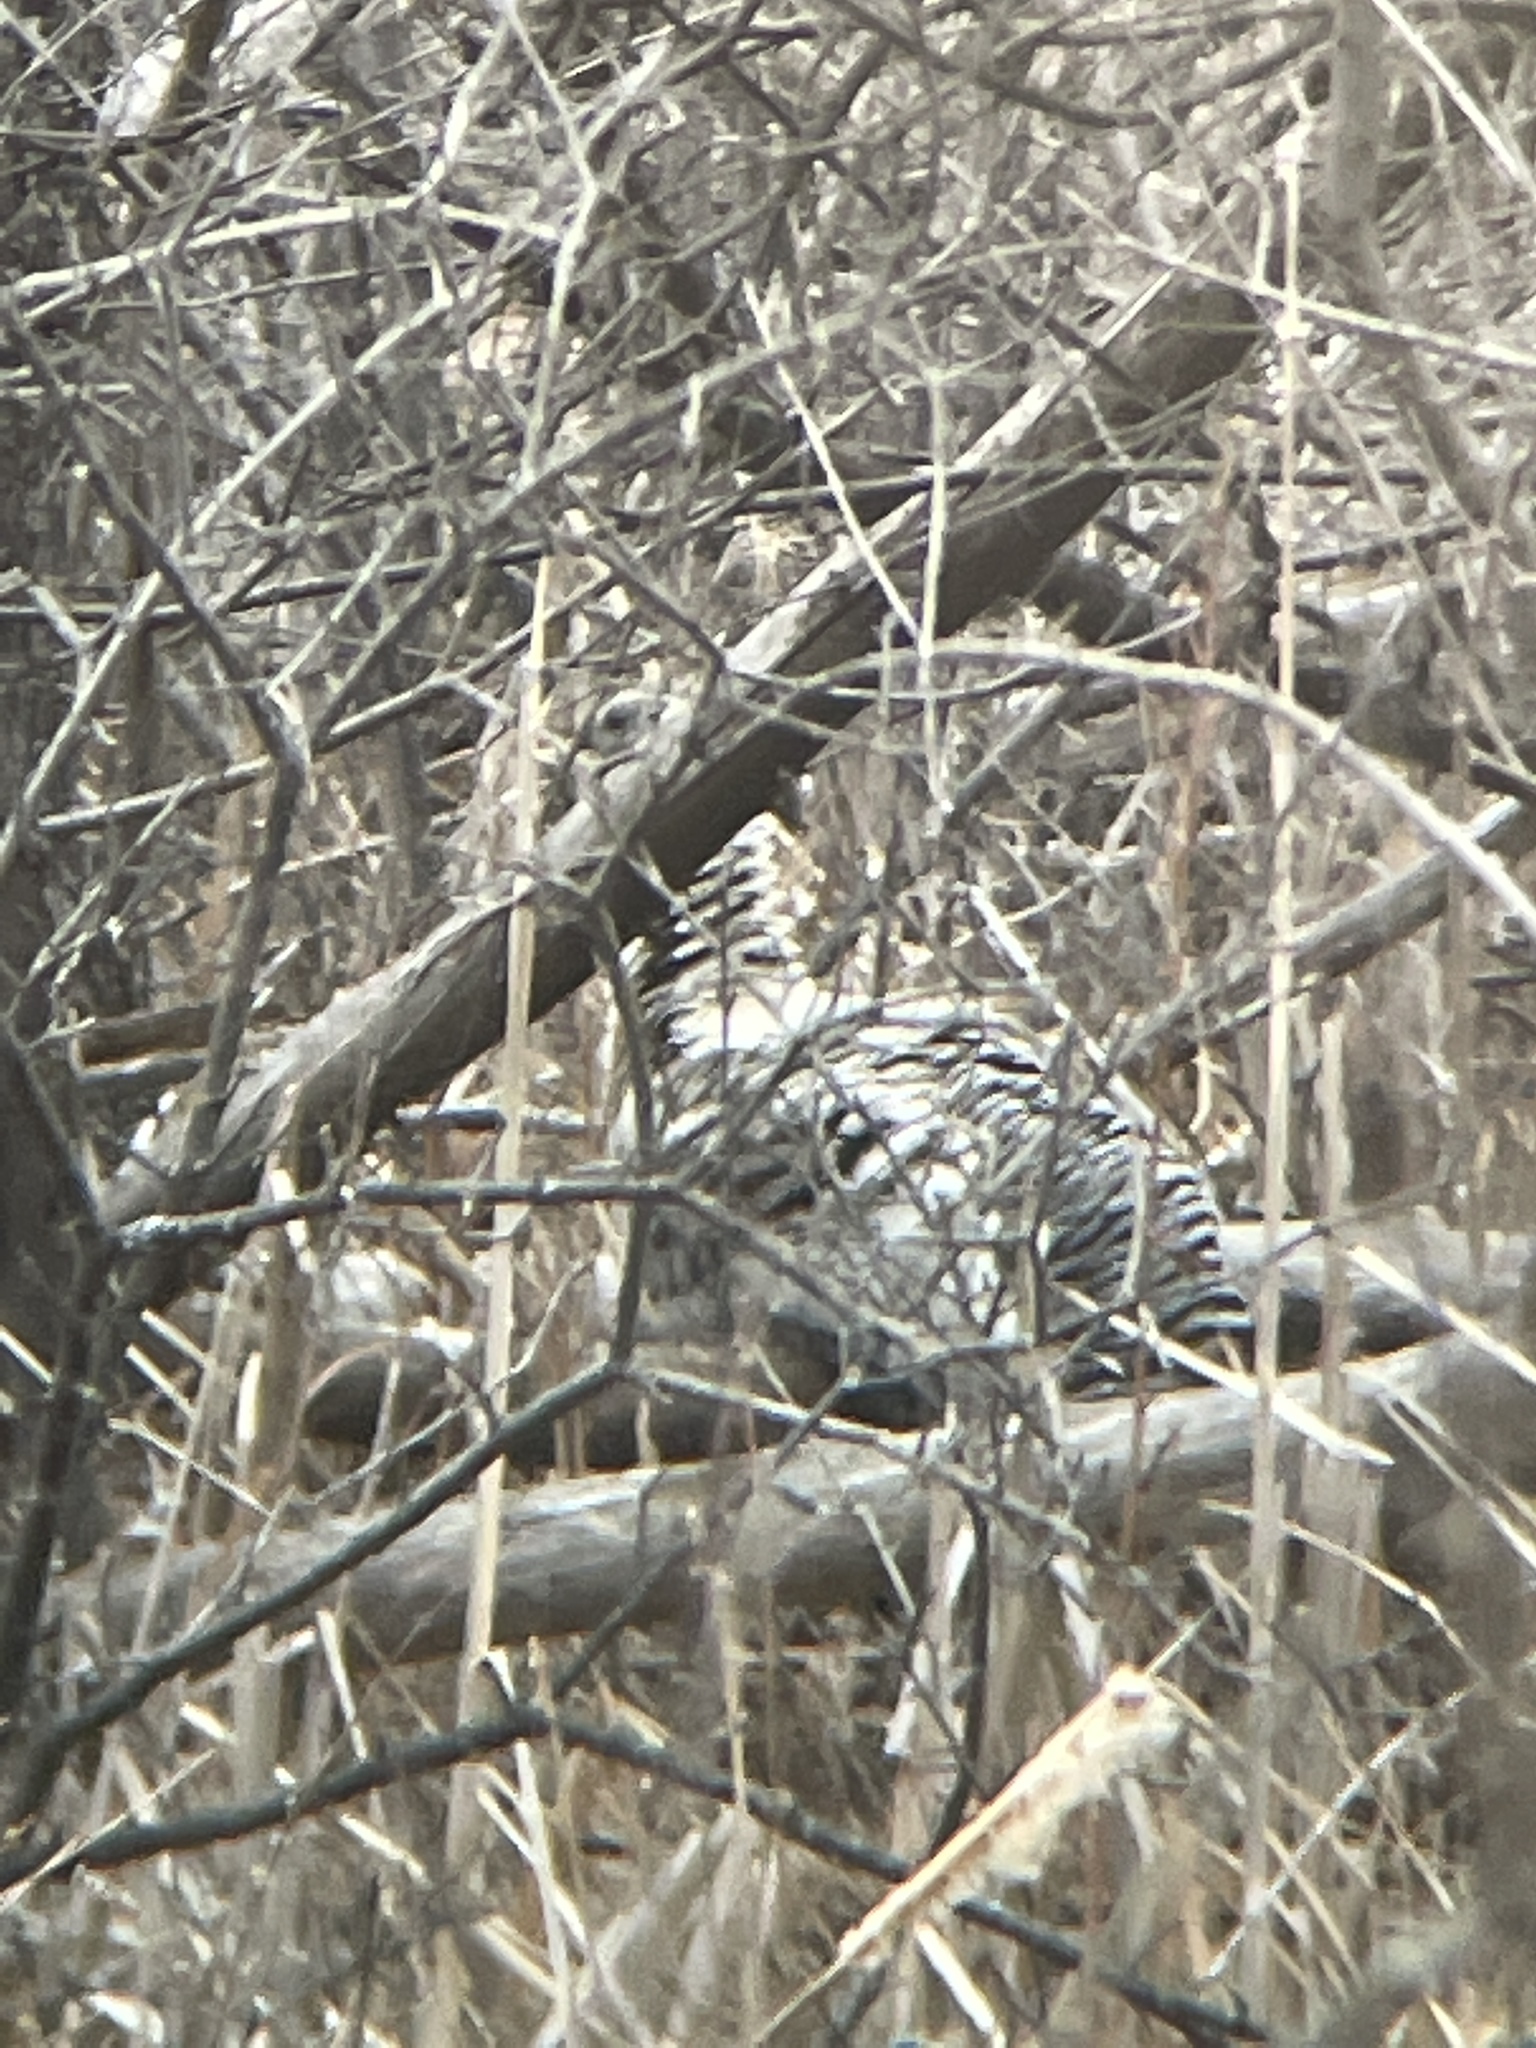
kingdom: Animalia
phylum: Chordata
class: Aves
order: Galliformes
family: Phasianidae
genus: Meleagris
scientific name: Meleagris gallopavo
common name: Wild turkey
